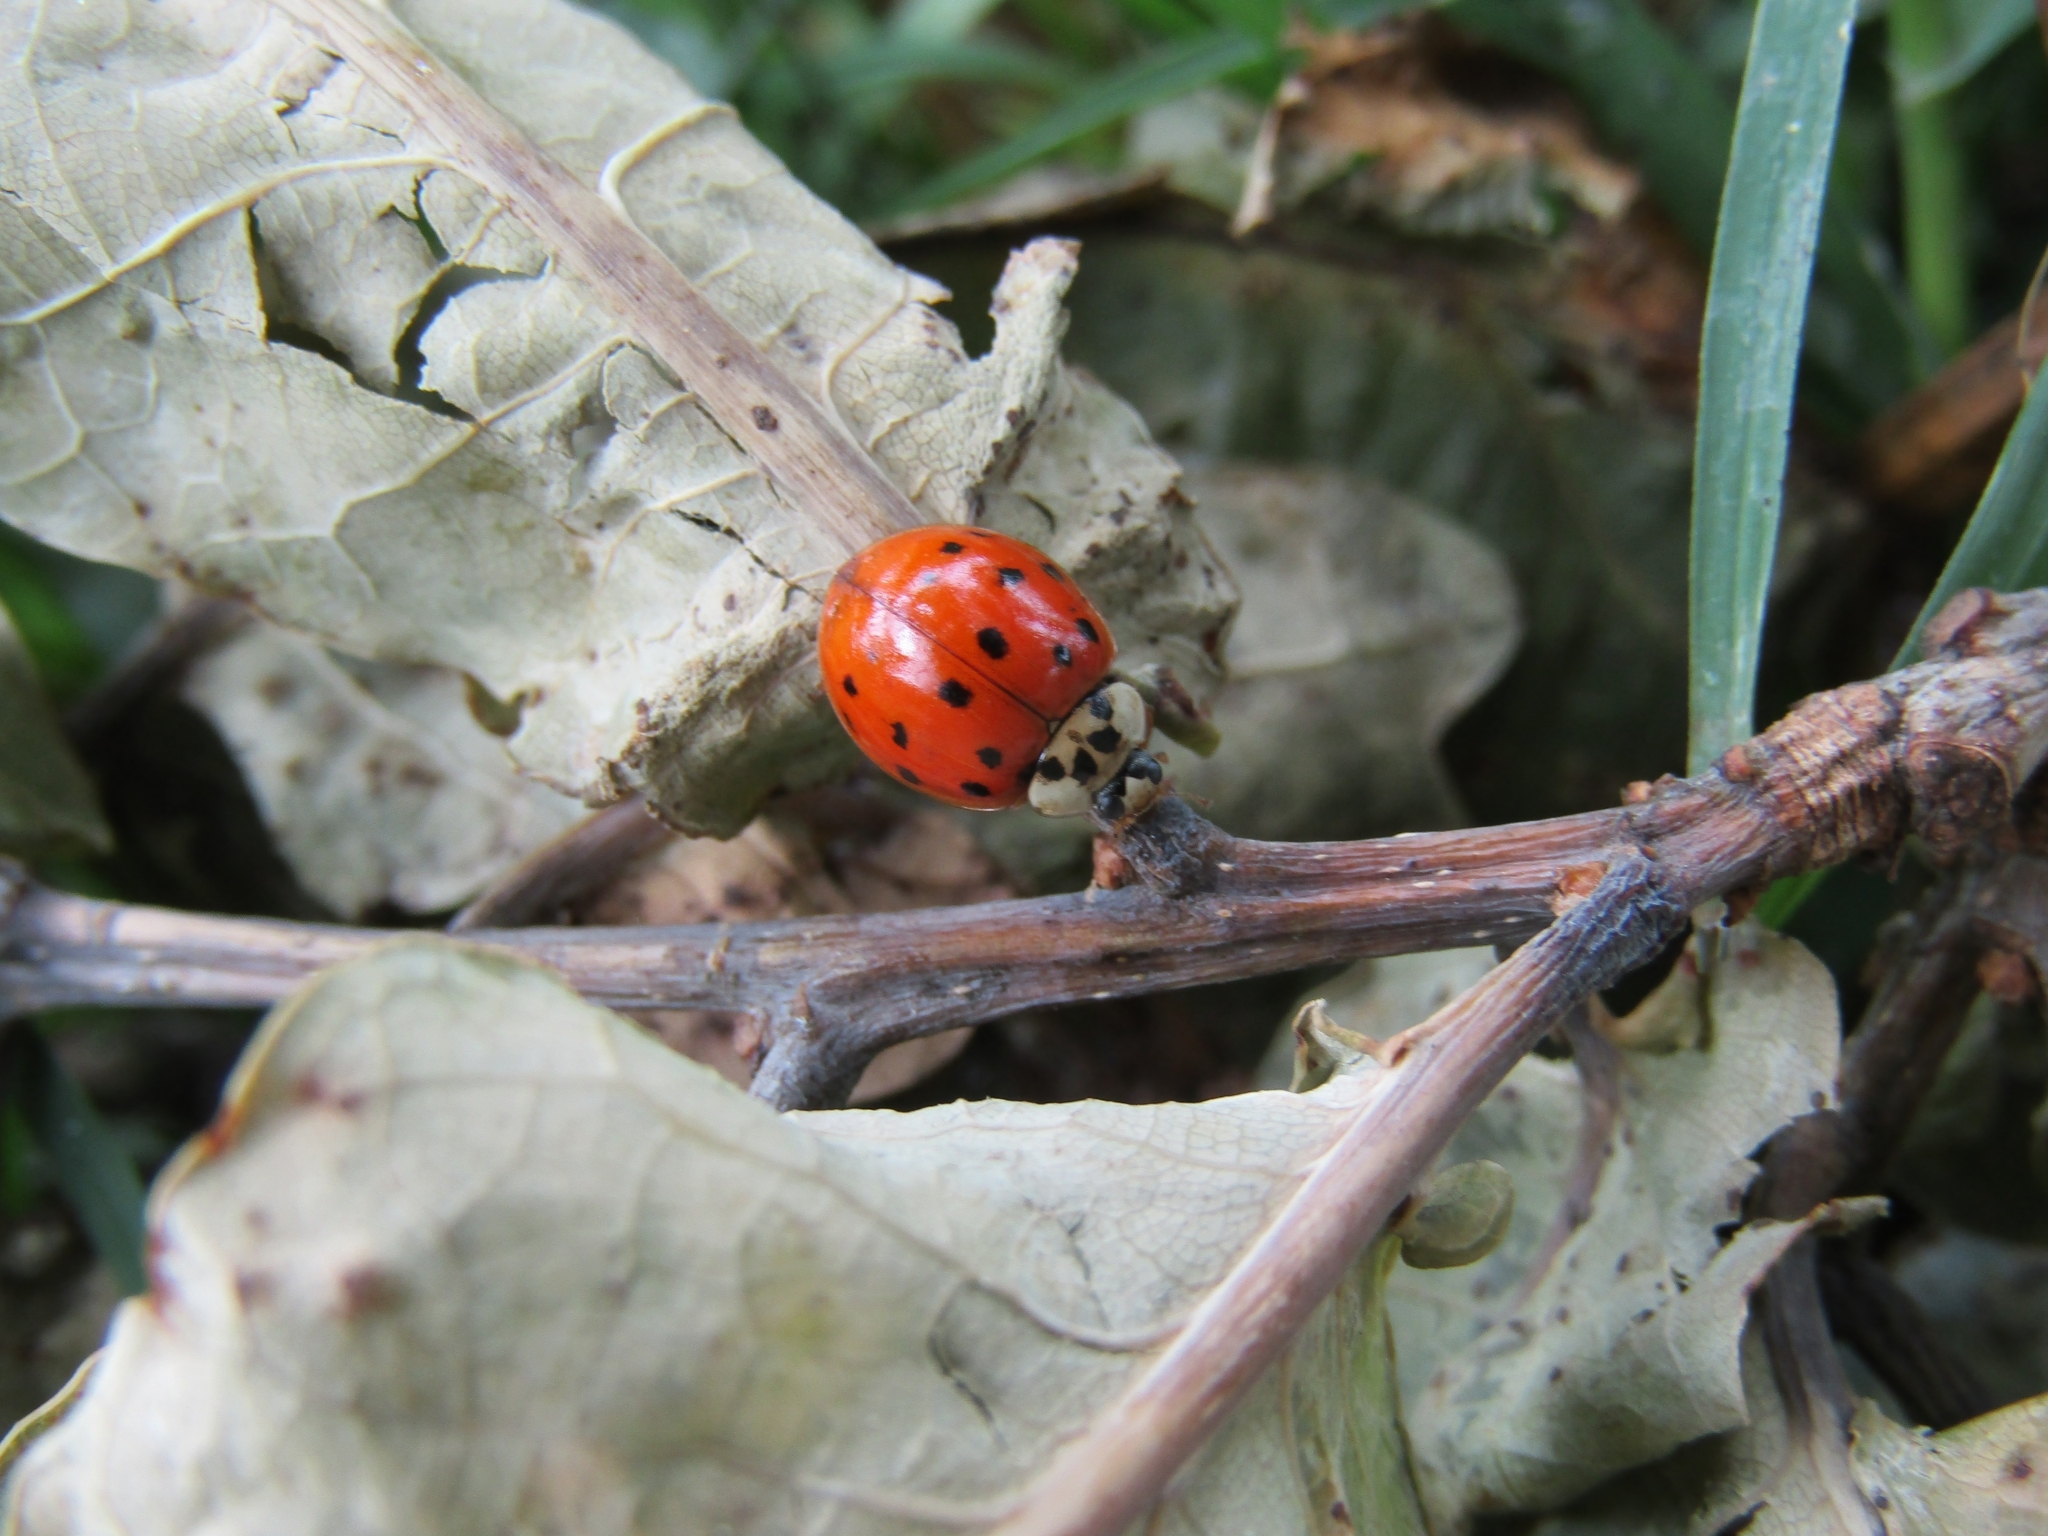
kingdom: Animalia
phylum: Arthropoda
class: Insecta
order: Coleoptera
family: Coccinellidae
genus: Harmonia
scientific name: Harmonia axyridis
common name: Harlequin ladybird
